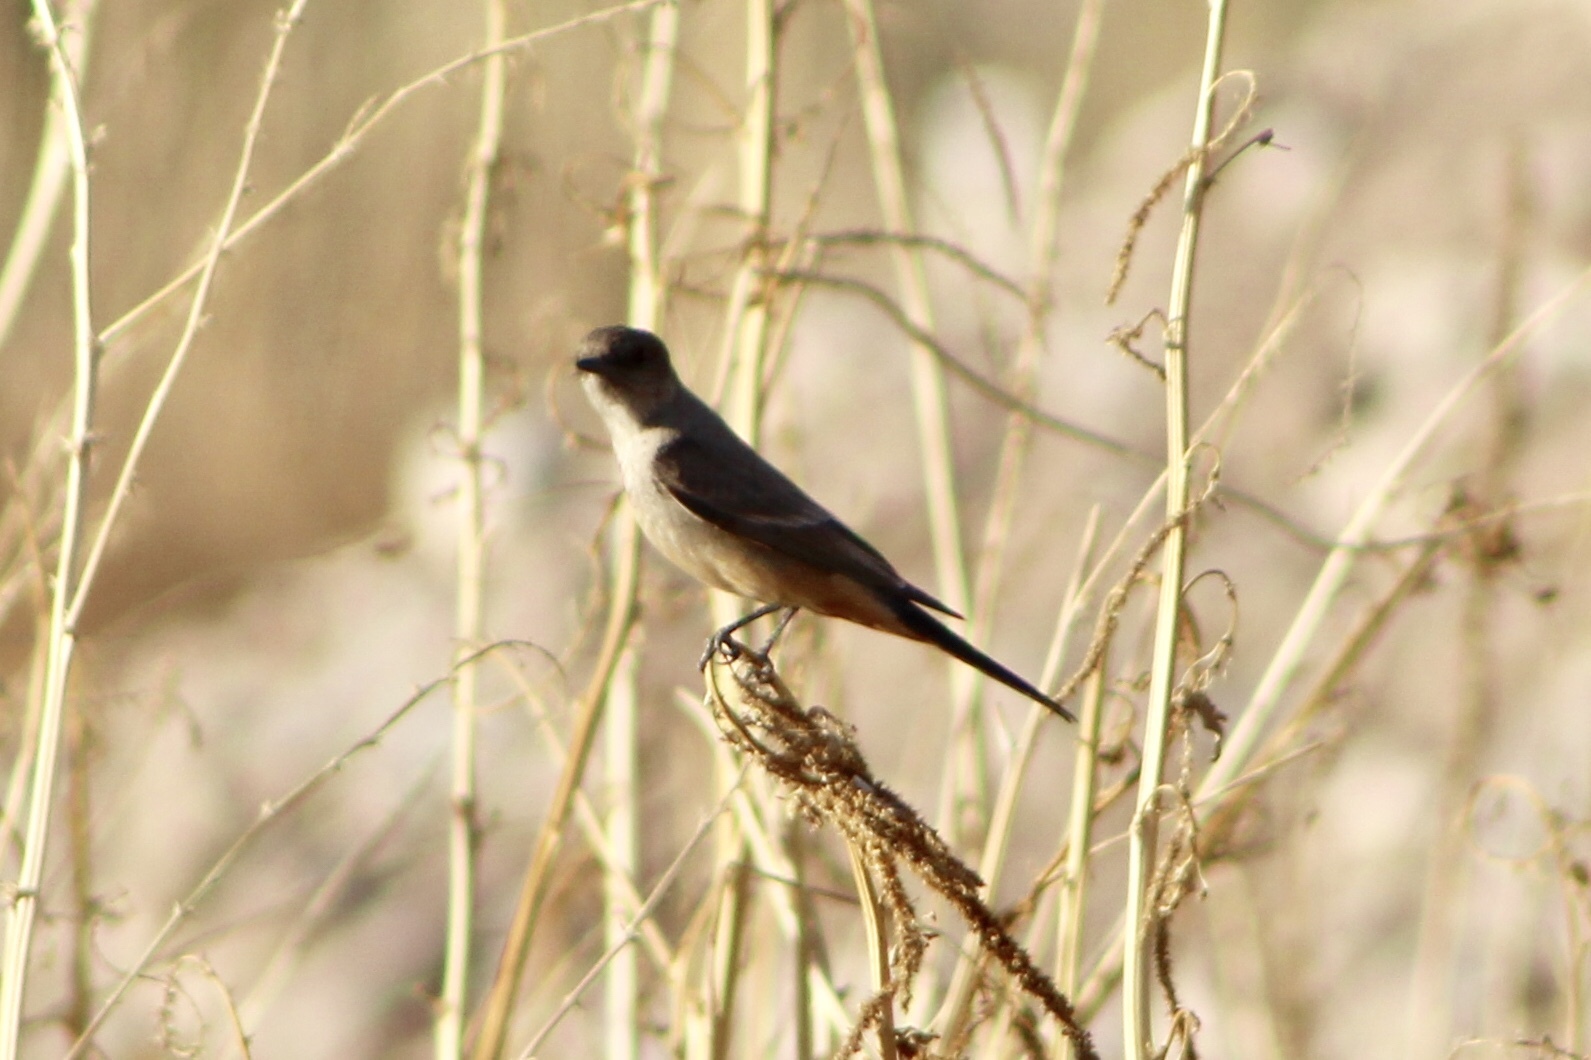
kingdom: Animalia
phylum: Chordata
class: Aves
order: Passeriformes
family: Tyrannidae
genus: Sayornis
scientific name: Sayornis saya
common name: Say's phoebe
